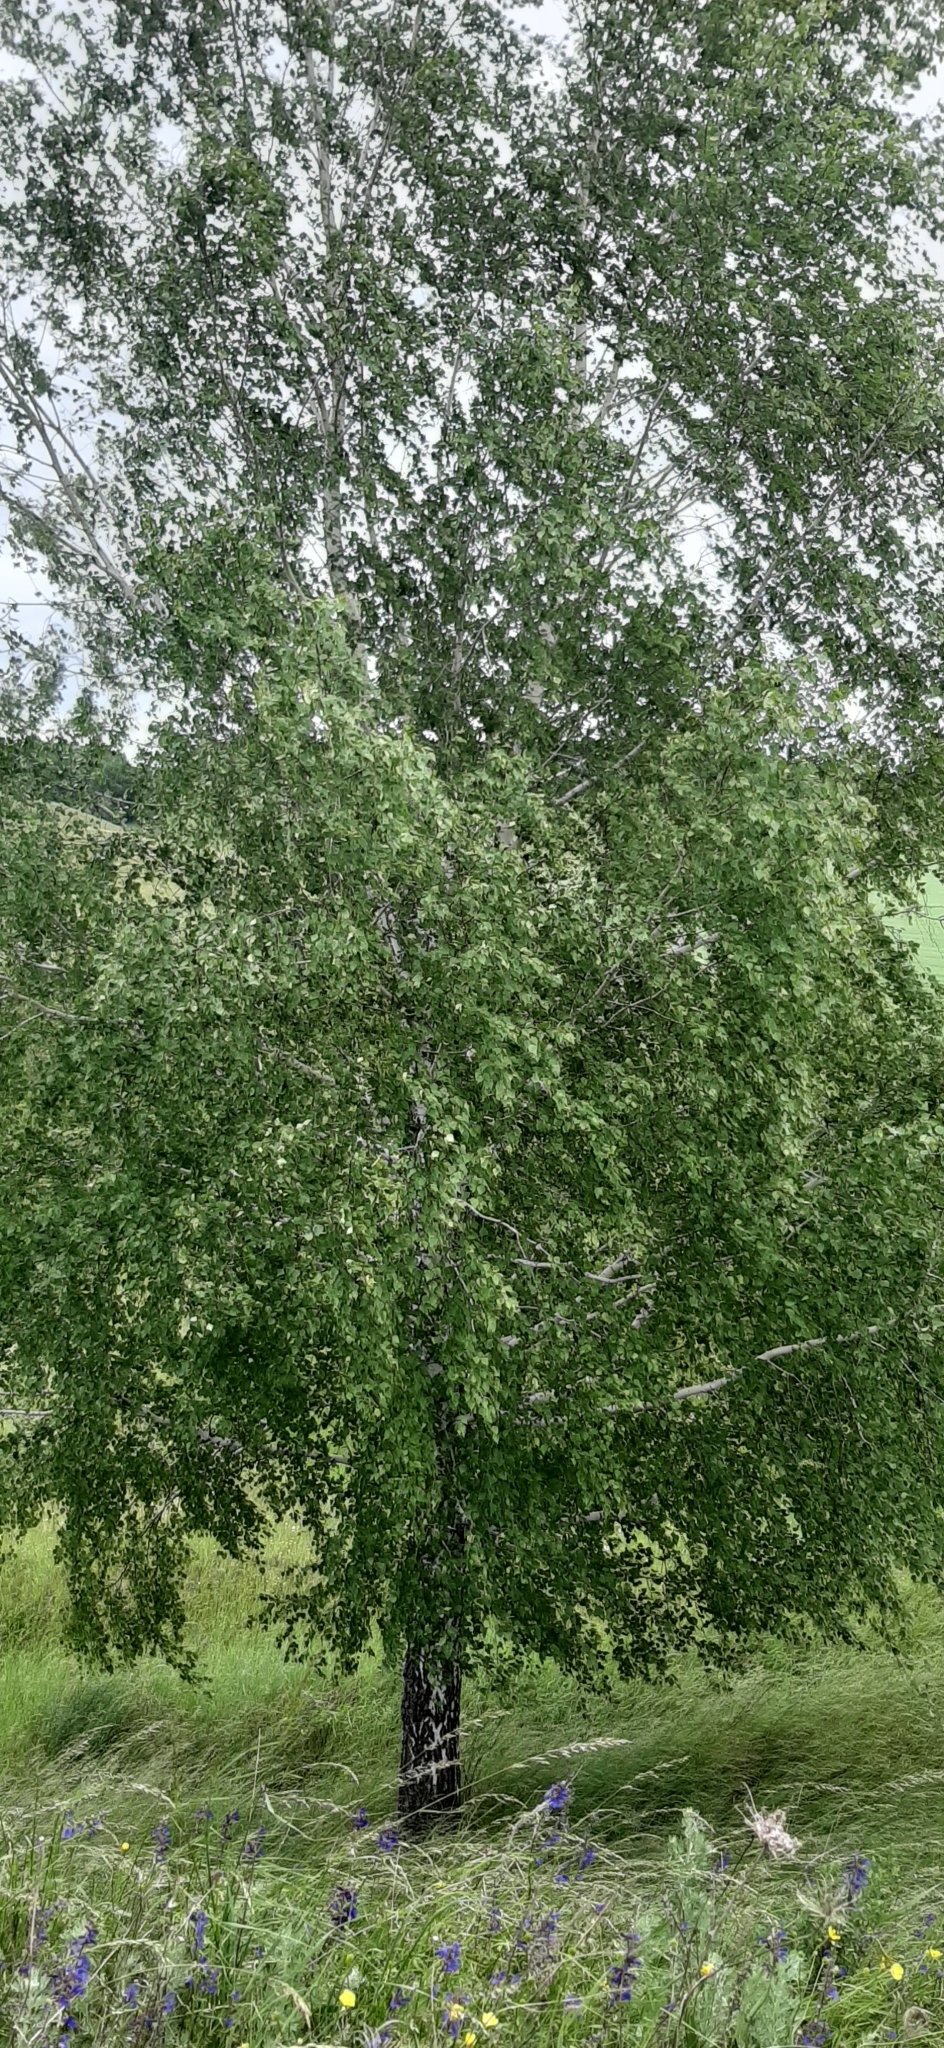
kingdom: Plantae
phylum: Tracheophyta
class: Magnoliopsida
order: Fagales
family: Betulaceae
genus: Betula
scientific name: Betula pendula
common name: Silver birch
